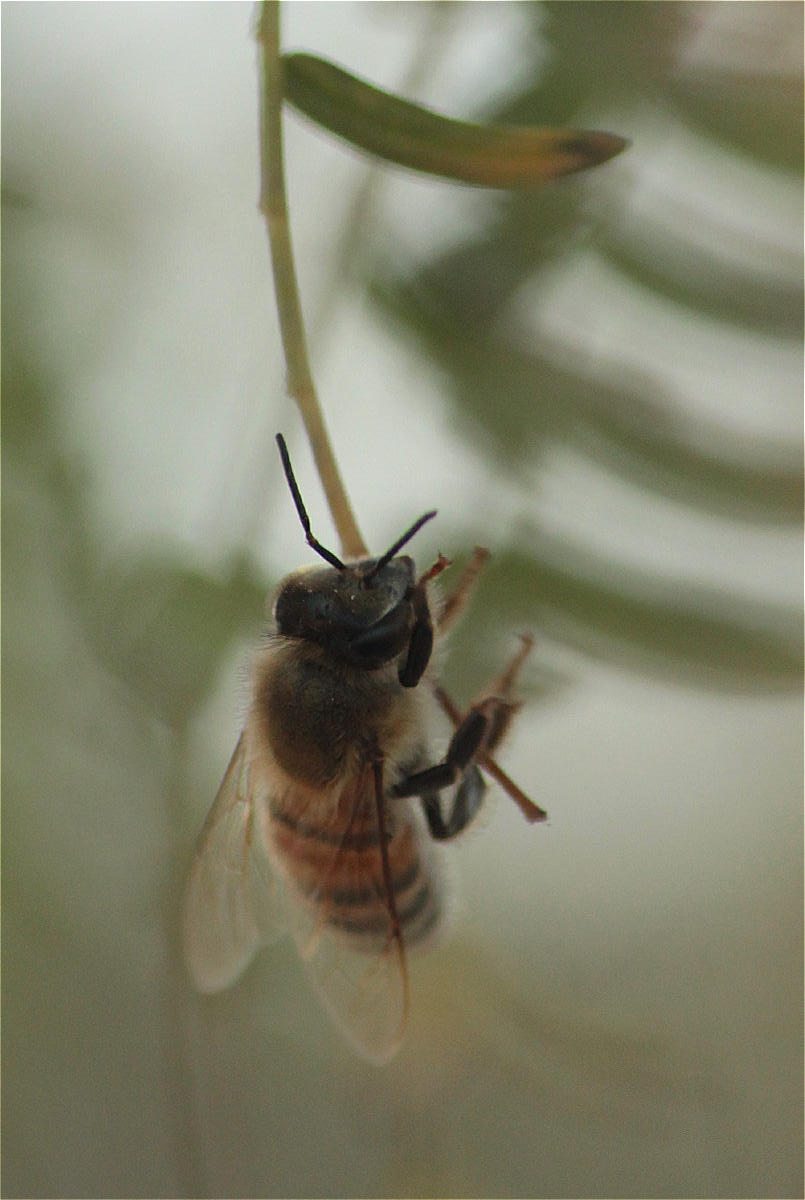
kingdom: Animalia
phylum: Arthropoda
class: Insecta
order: Hymenoptera
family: Apidae
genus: Apis
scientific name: Apis mellifera
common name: Honey bee
